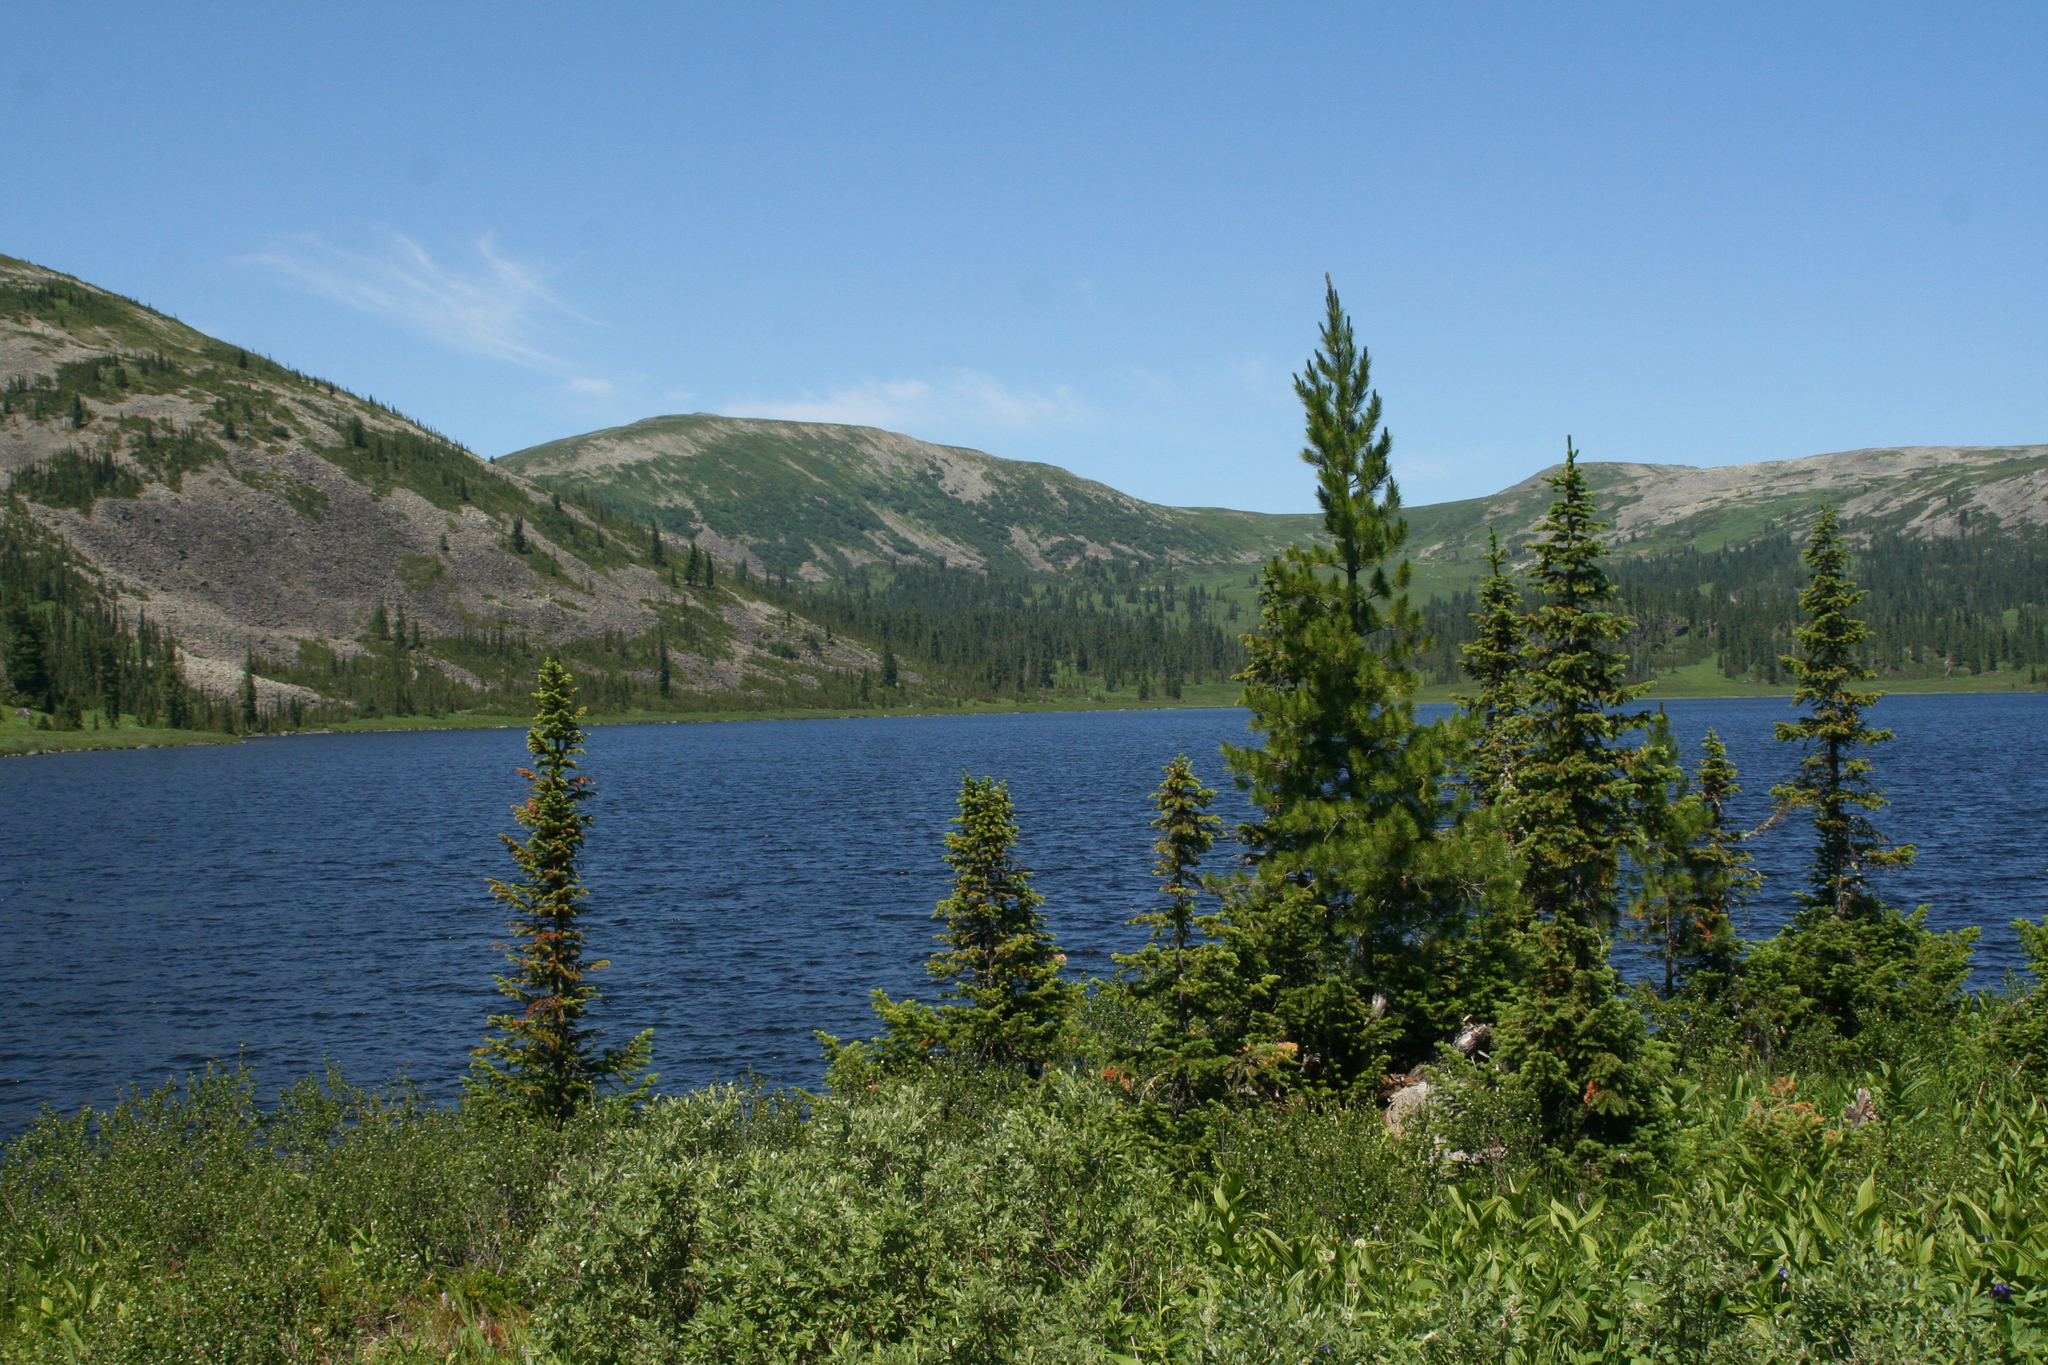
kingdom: Plantae
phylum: Tracheophyta
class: Pinopsida
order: Pinales
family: Pinaceae
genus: Abies
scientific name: Abies sibirica
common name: Siberian fir
